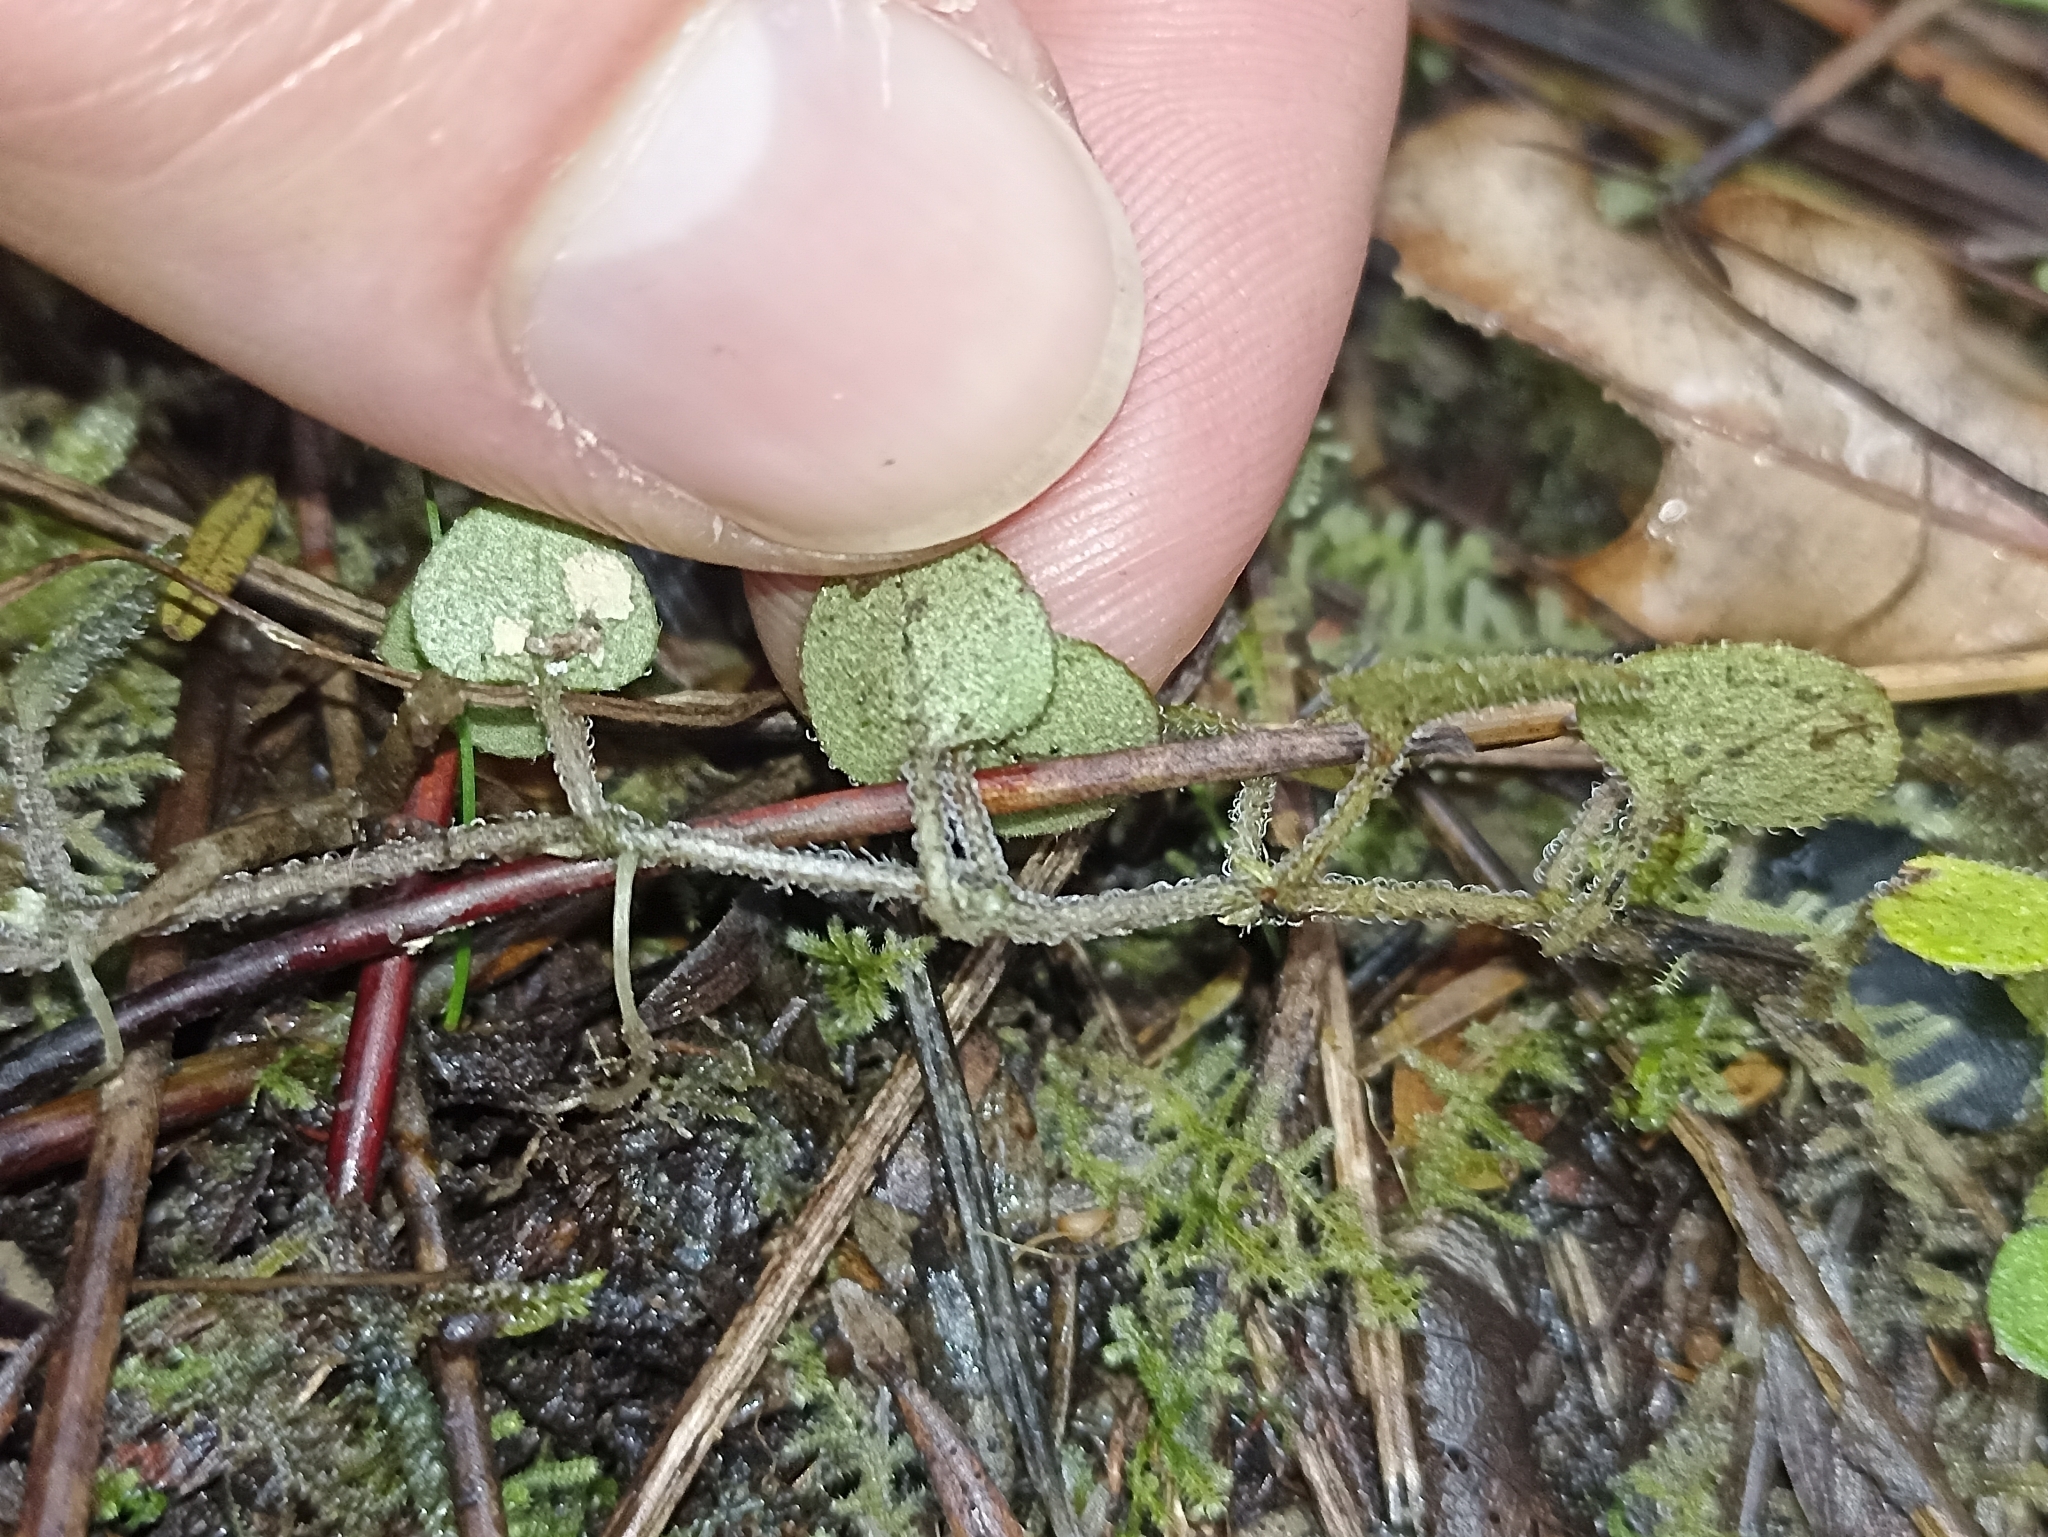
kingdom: Plantae
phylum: Tracheophyta
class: Magnoliopsida
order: Gentianales
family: Rubiaceae
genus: Nertera
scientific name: Nertera dichondrifolia
